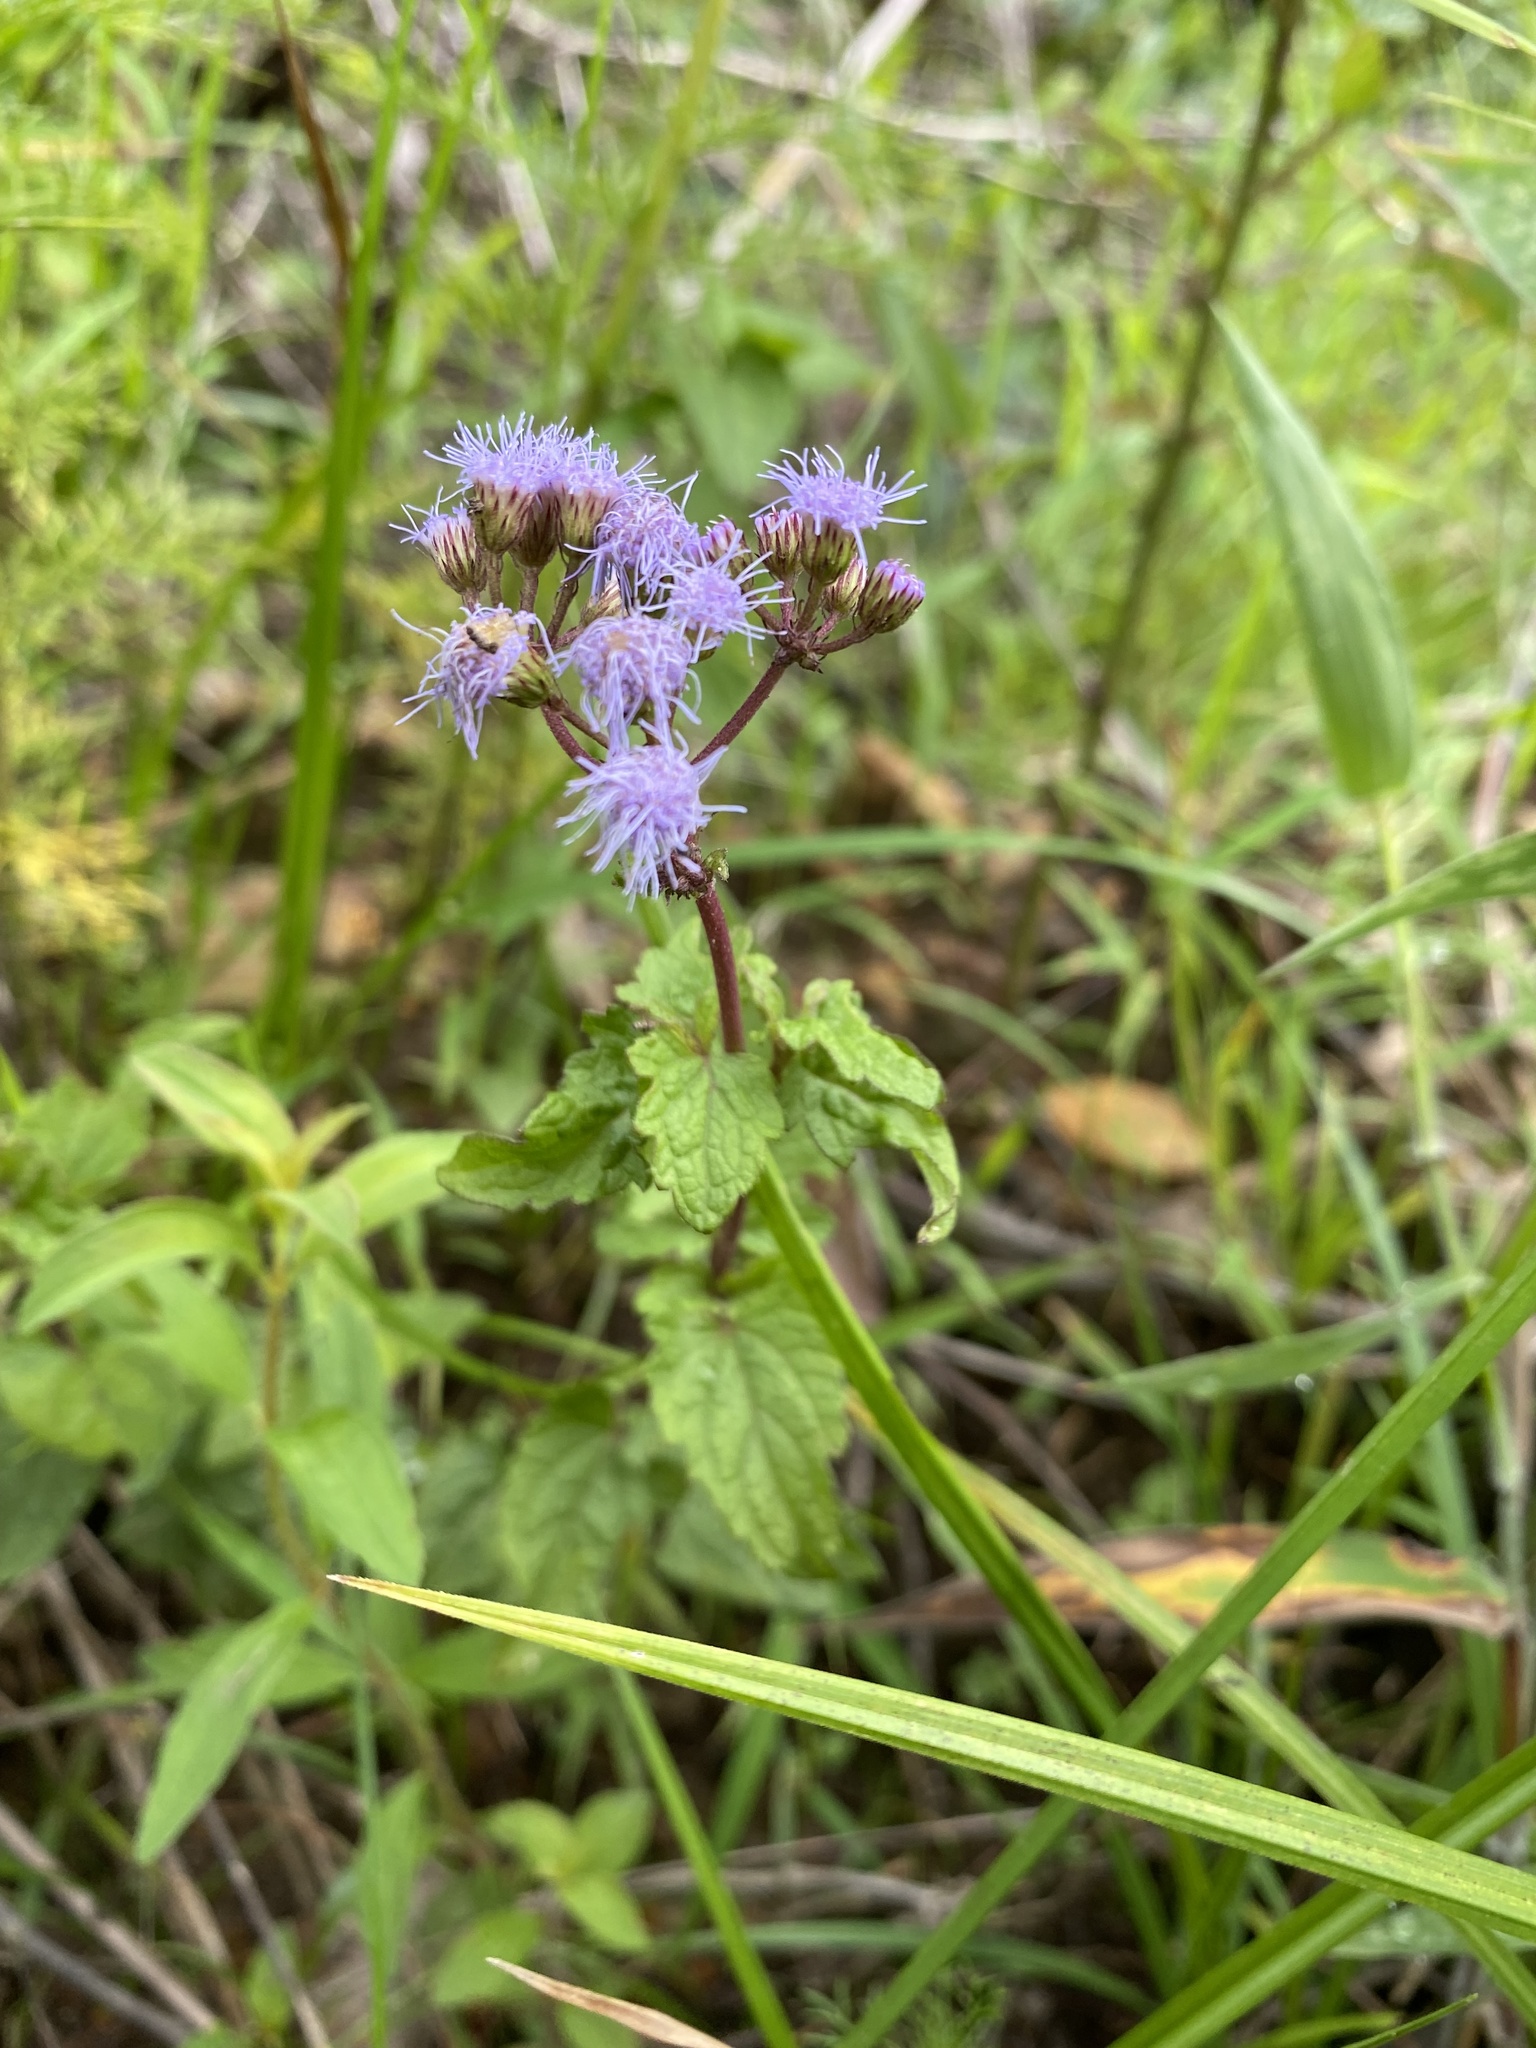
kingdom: Plantae
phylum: Tracheophyta
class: Magnoliopsida
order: Asterales
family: Asteraceae
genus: Conoclinium
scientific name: Conoclinium coelestinum
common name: Blue mistflower
